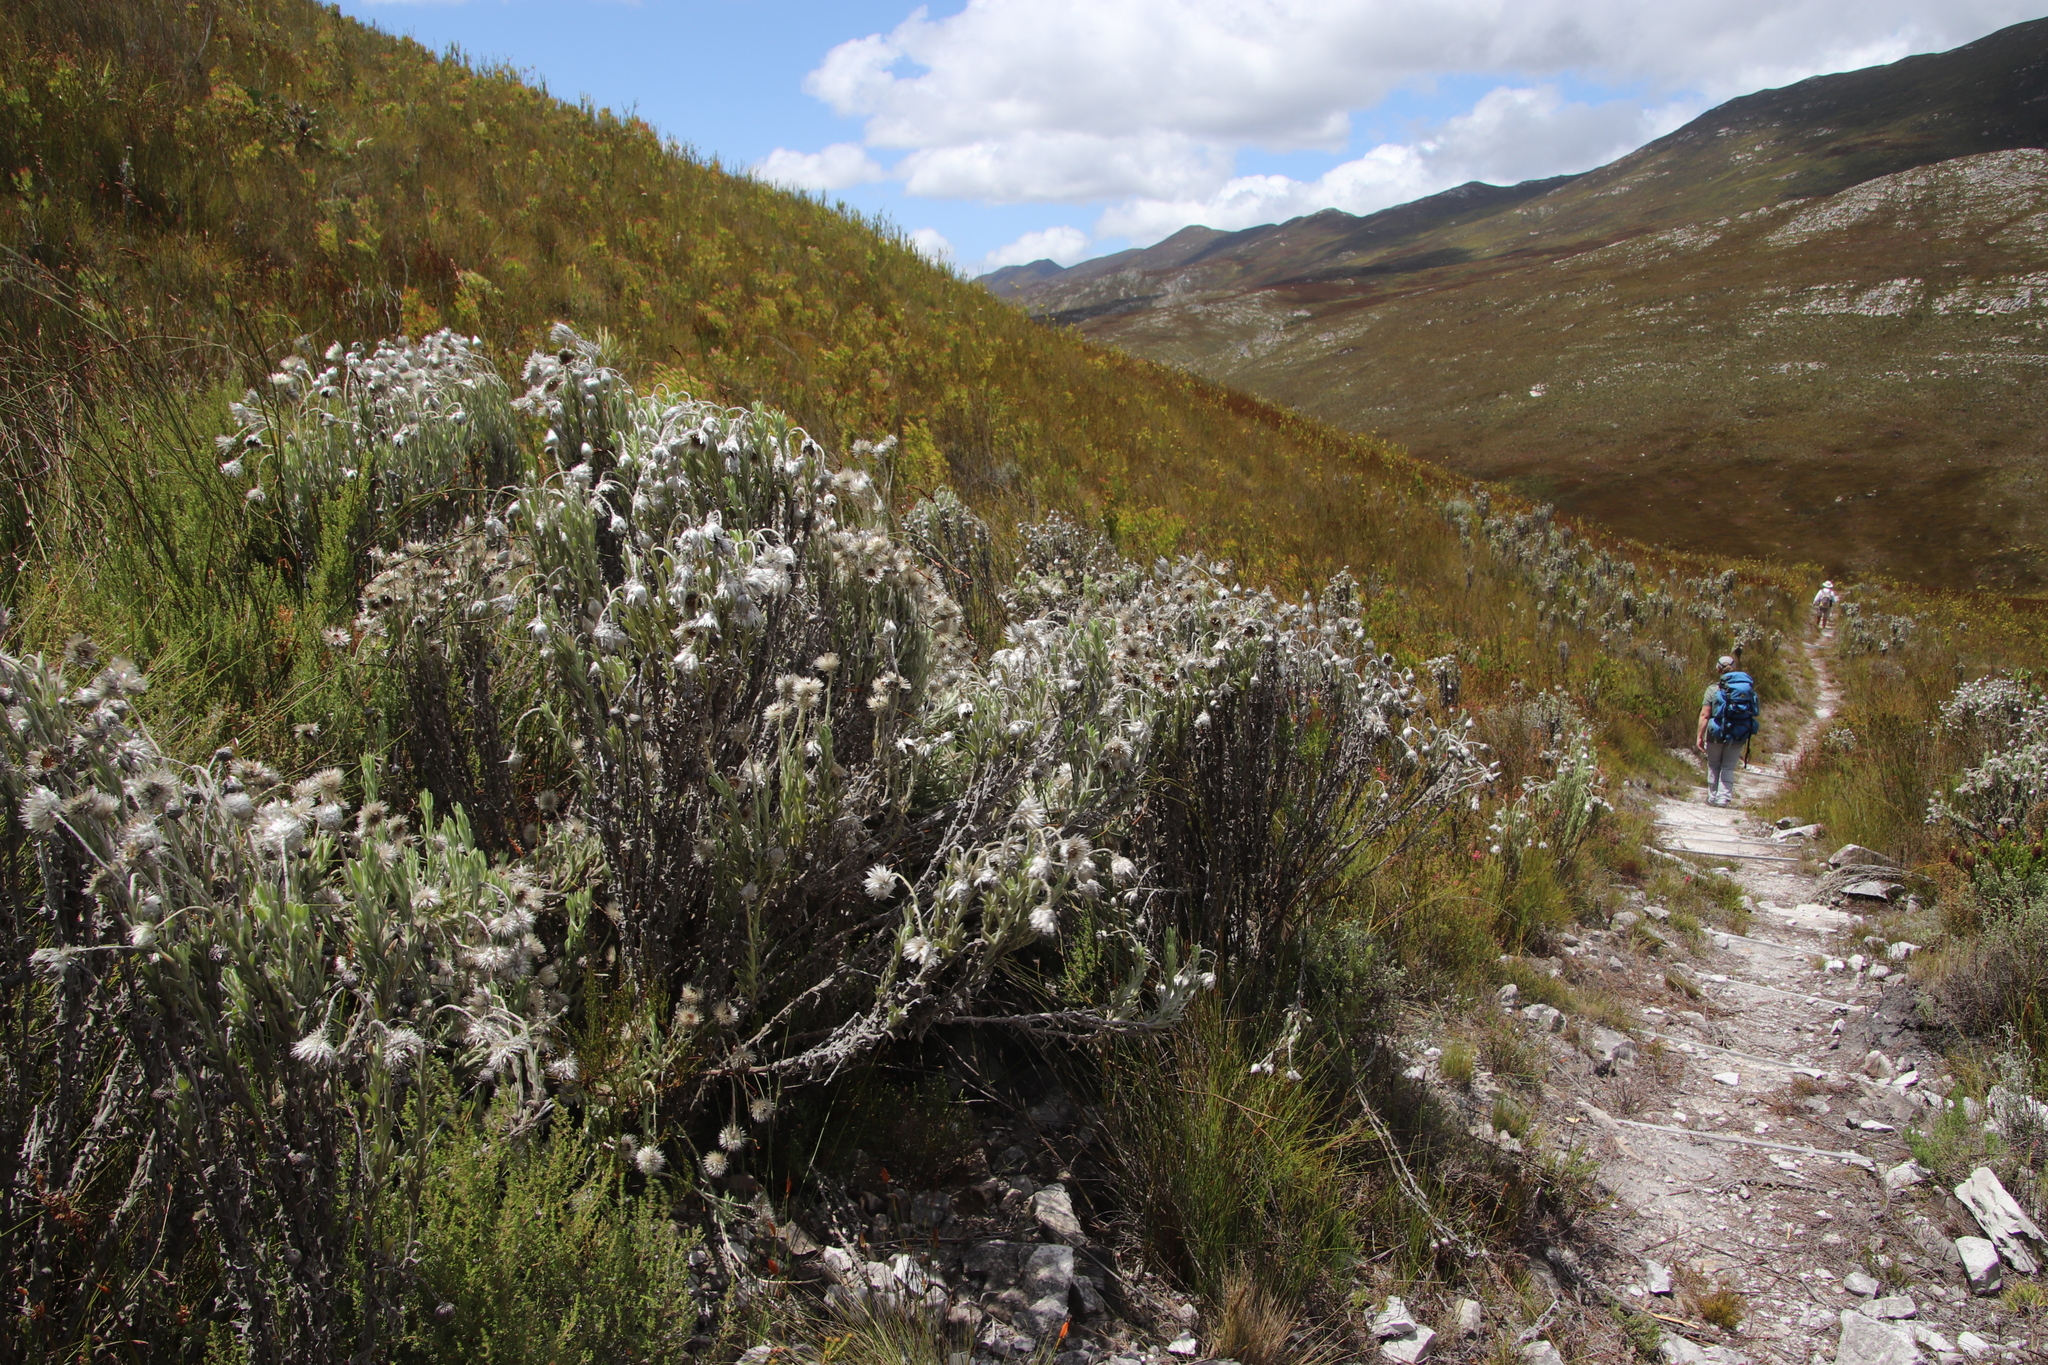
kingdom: Plantae
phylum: Tracheophyta
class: Magnoliopsida
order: Asterales
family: Asteraceae
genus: Syncarpha
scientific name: Syncarpha vestita
